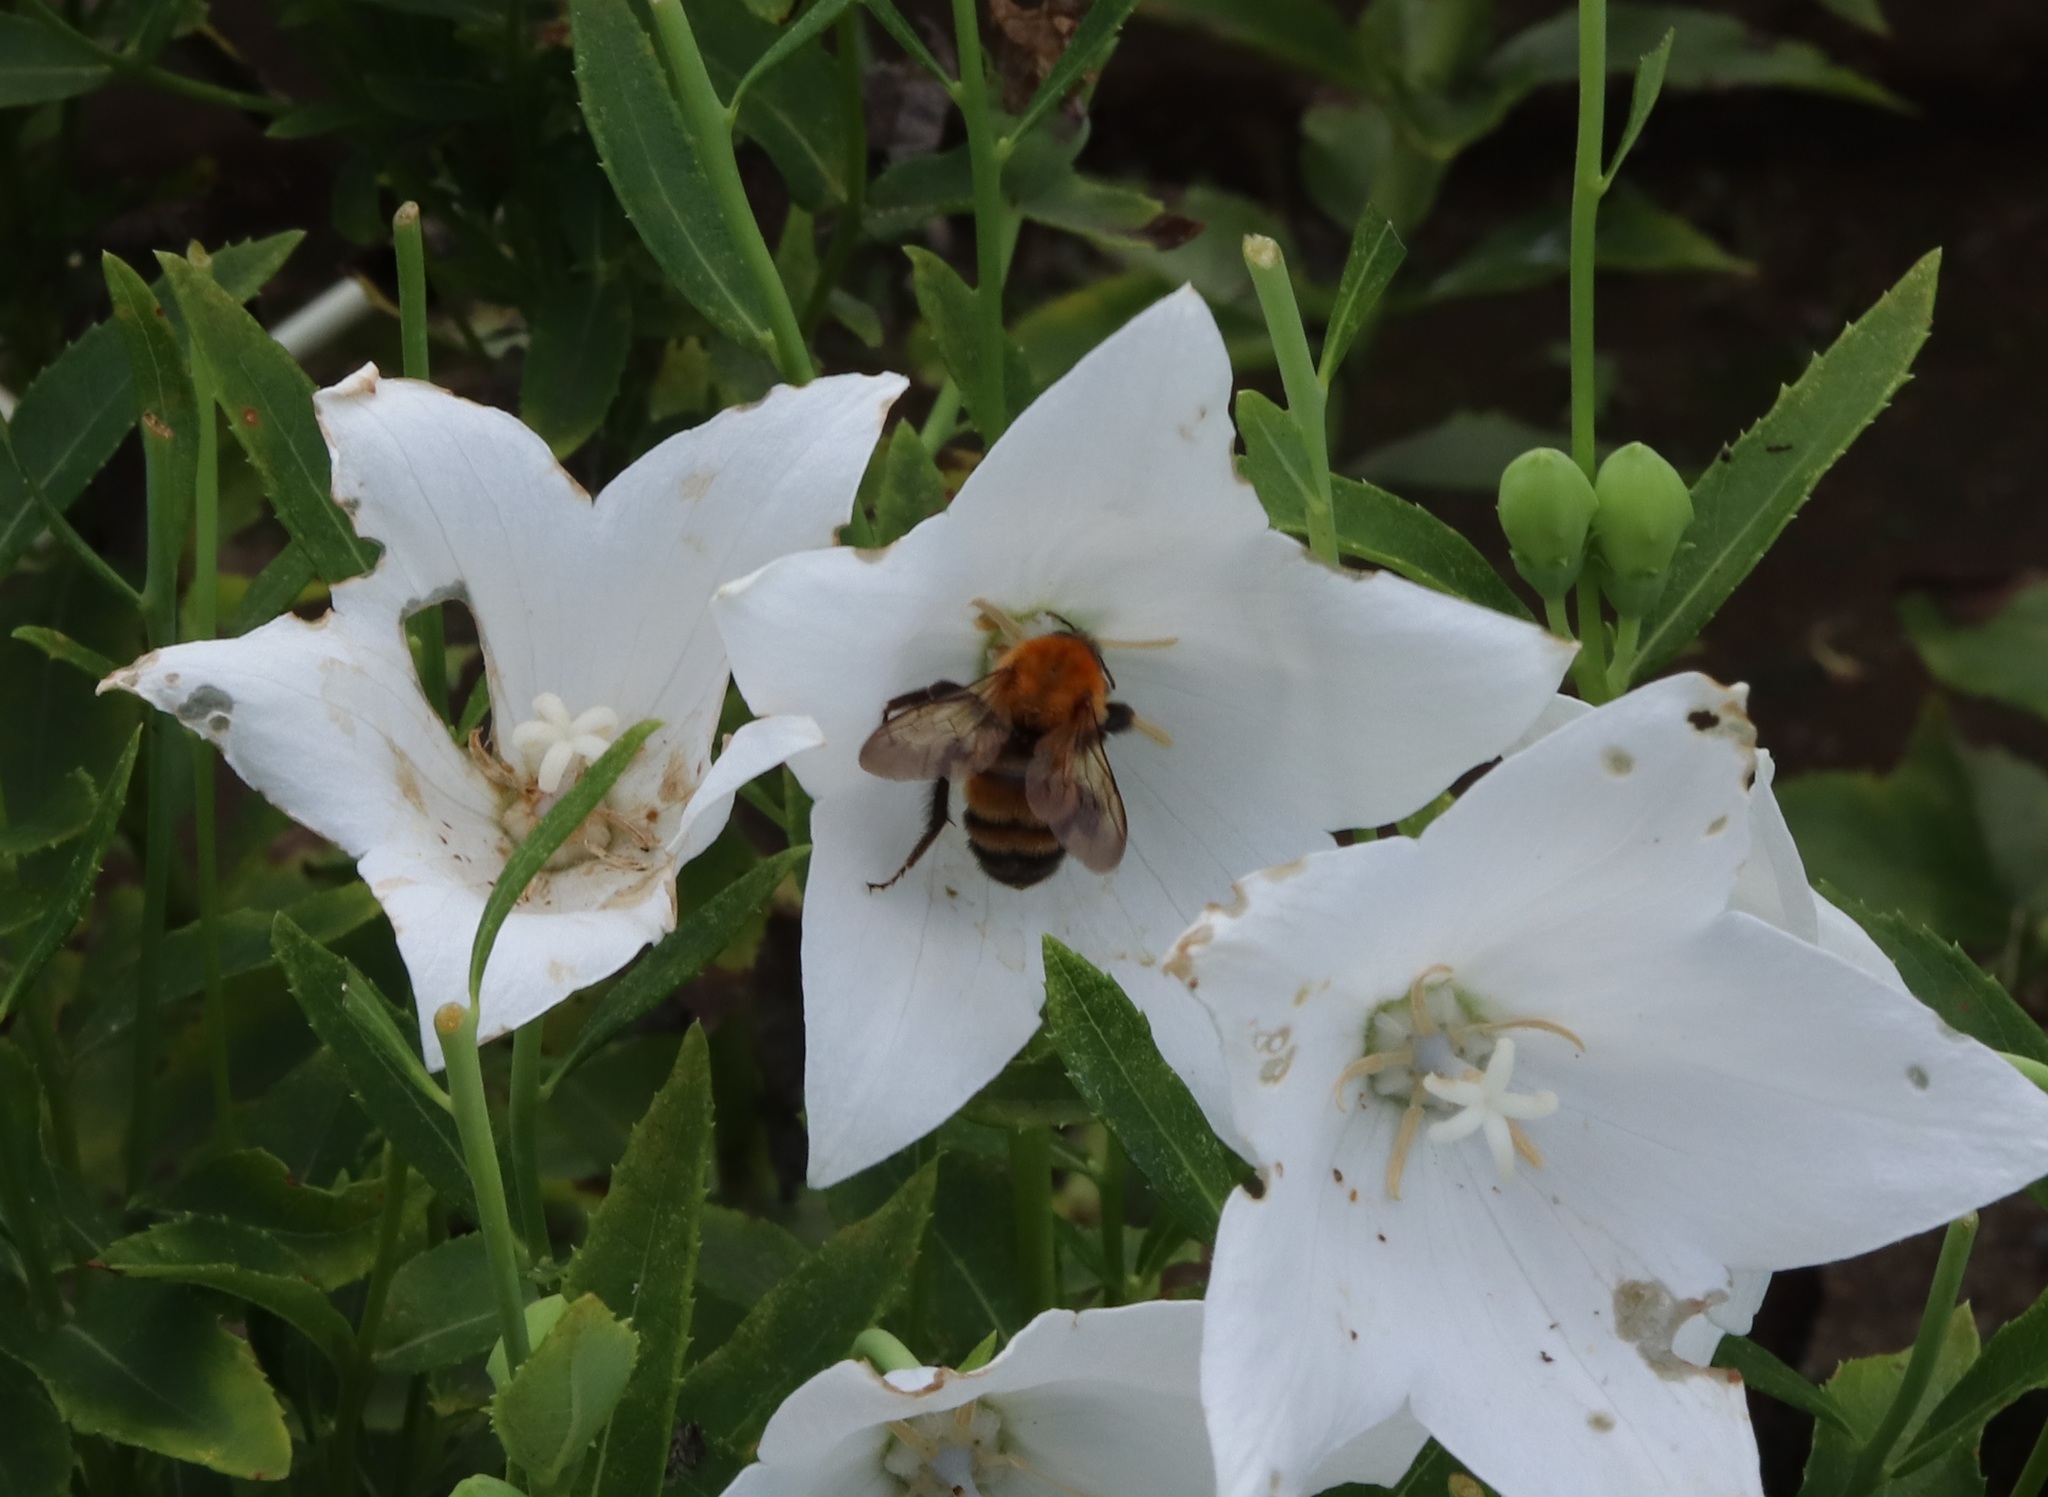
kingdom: Animalia
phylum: Arthropoda
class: Insecta
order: Hymenoptera
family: Apidae
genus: Bombus
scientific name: Bombus diversus
